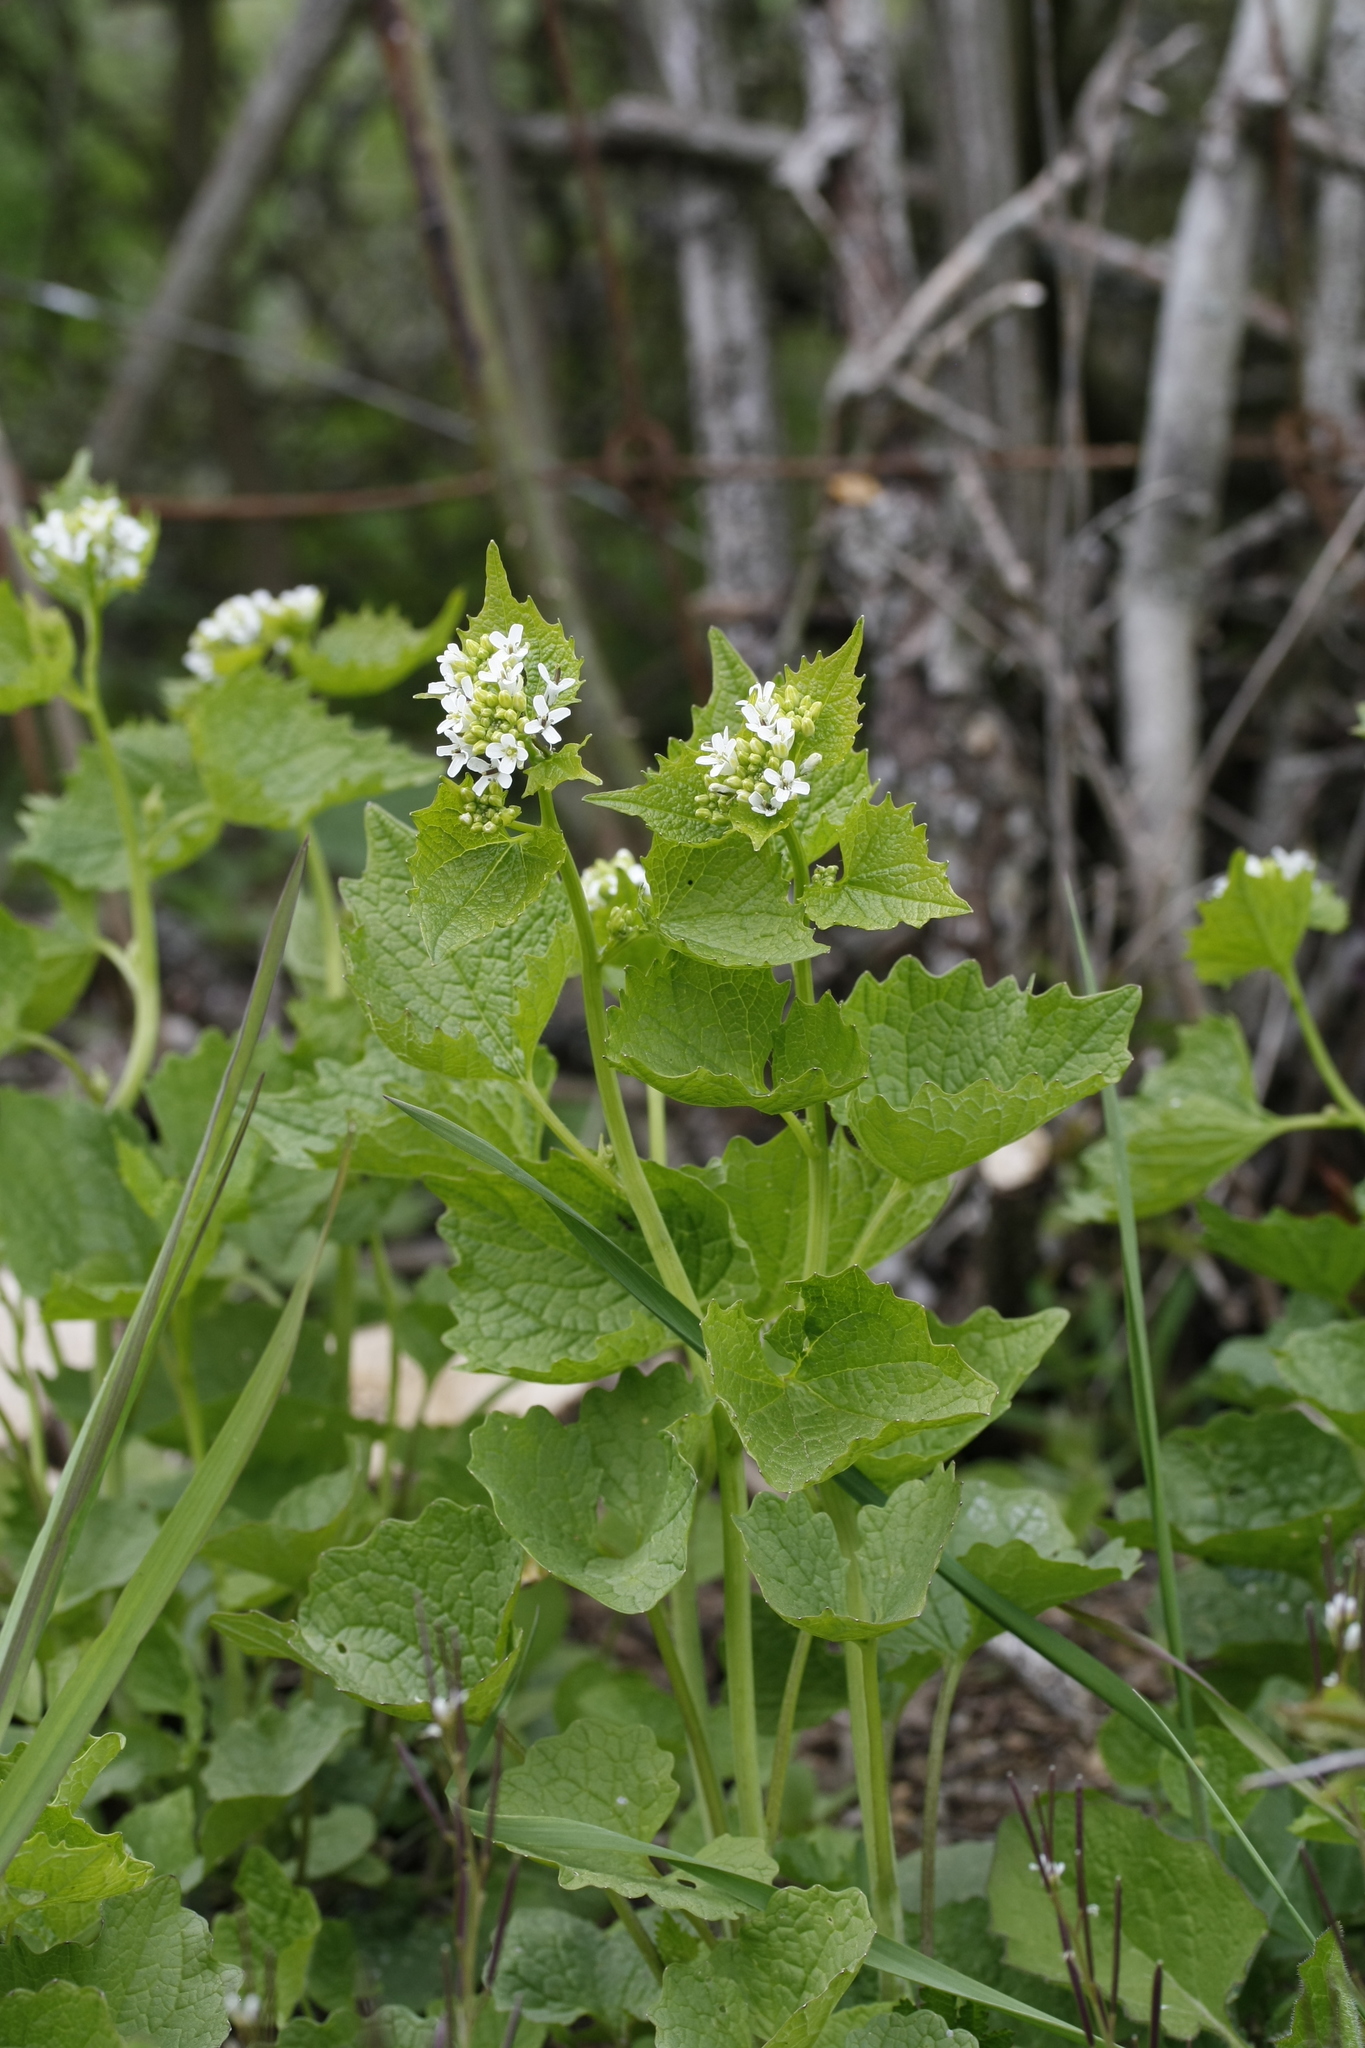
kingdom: Plantae
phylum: Tracheophyta
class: Magnoliopsida
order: Brassicales
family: Brassicaceae
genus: Alliaria
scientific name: Alliaria petiolata
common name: Garlic mustard
